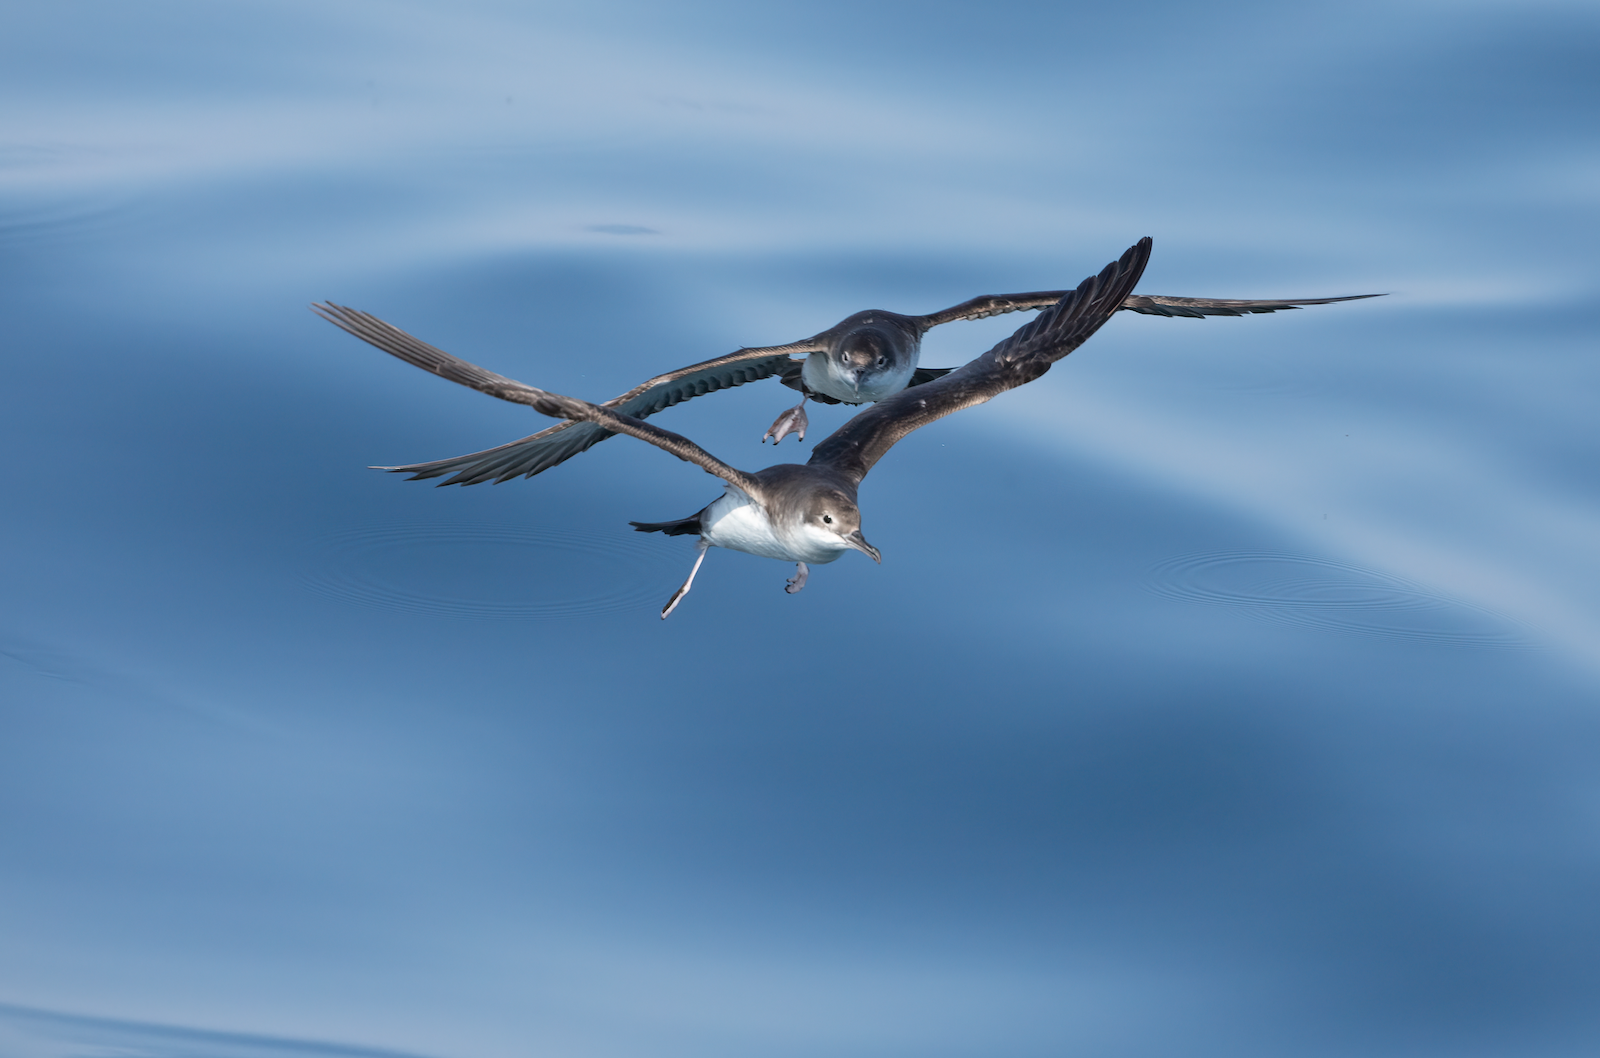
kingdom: Animalia
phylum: Chordata
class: Aves
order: Procellariiformes
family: Procellariidae
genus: Puffinus
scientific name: Puffinus yelkouan
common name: Yelkouan shearwater
